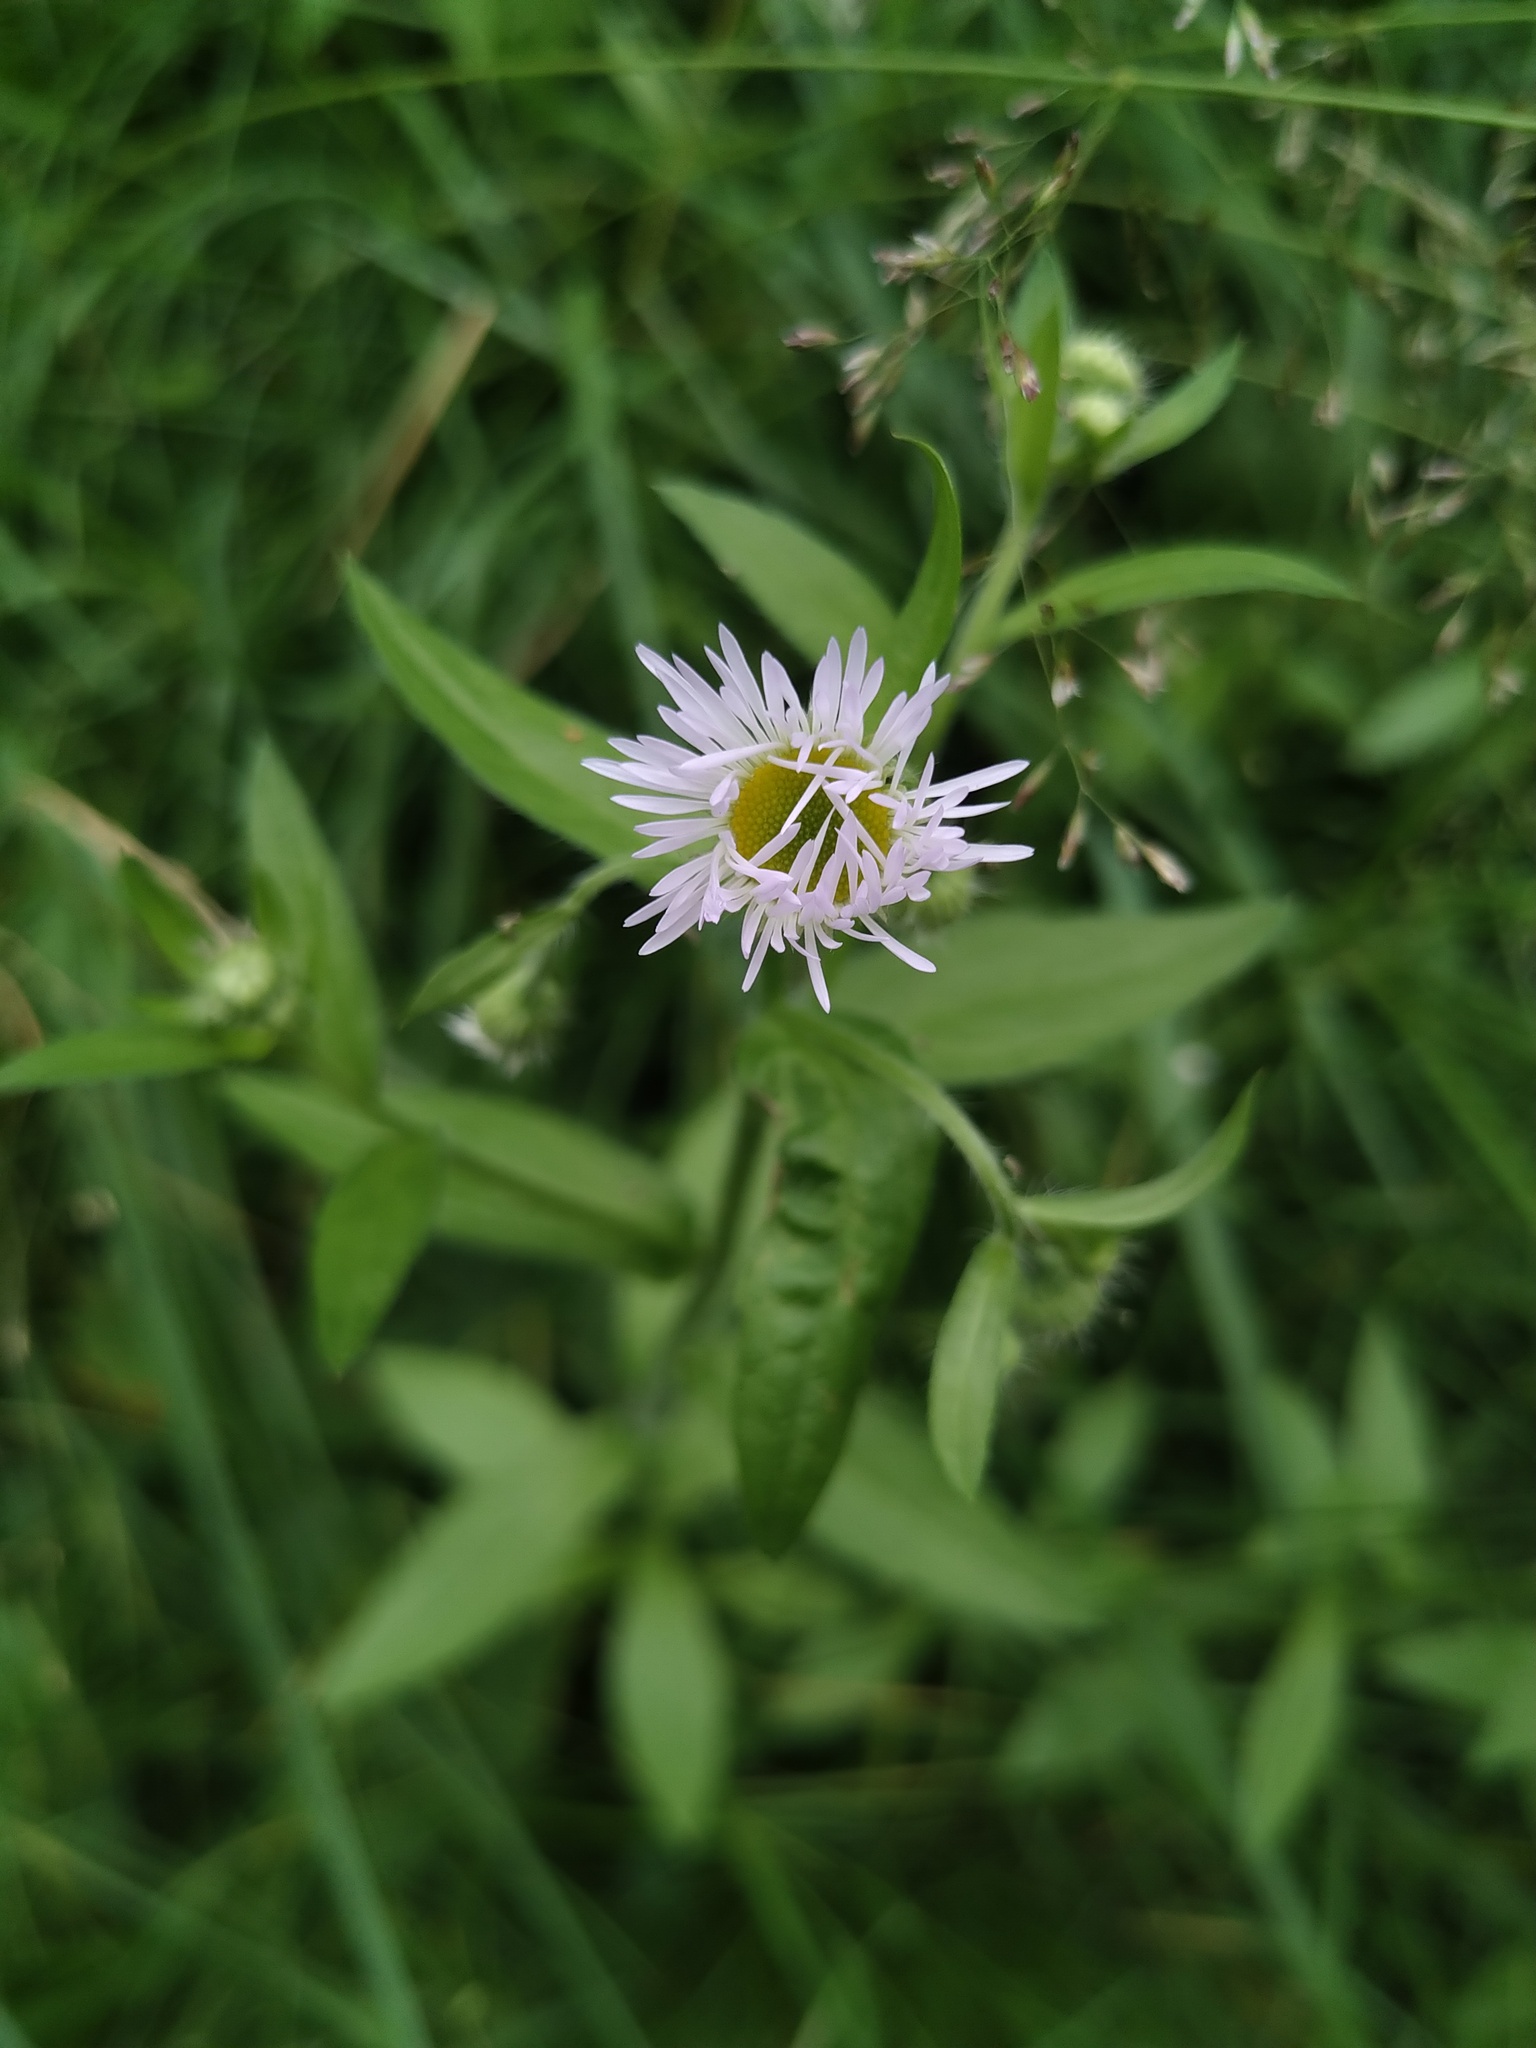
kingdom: Plantae
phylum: Tracheophyta
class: Magnoliopsida
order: Asterales
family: Asteraceae
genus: Erigeron
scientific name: Erigeron annuus
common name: Tall fleabane
